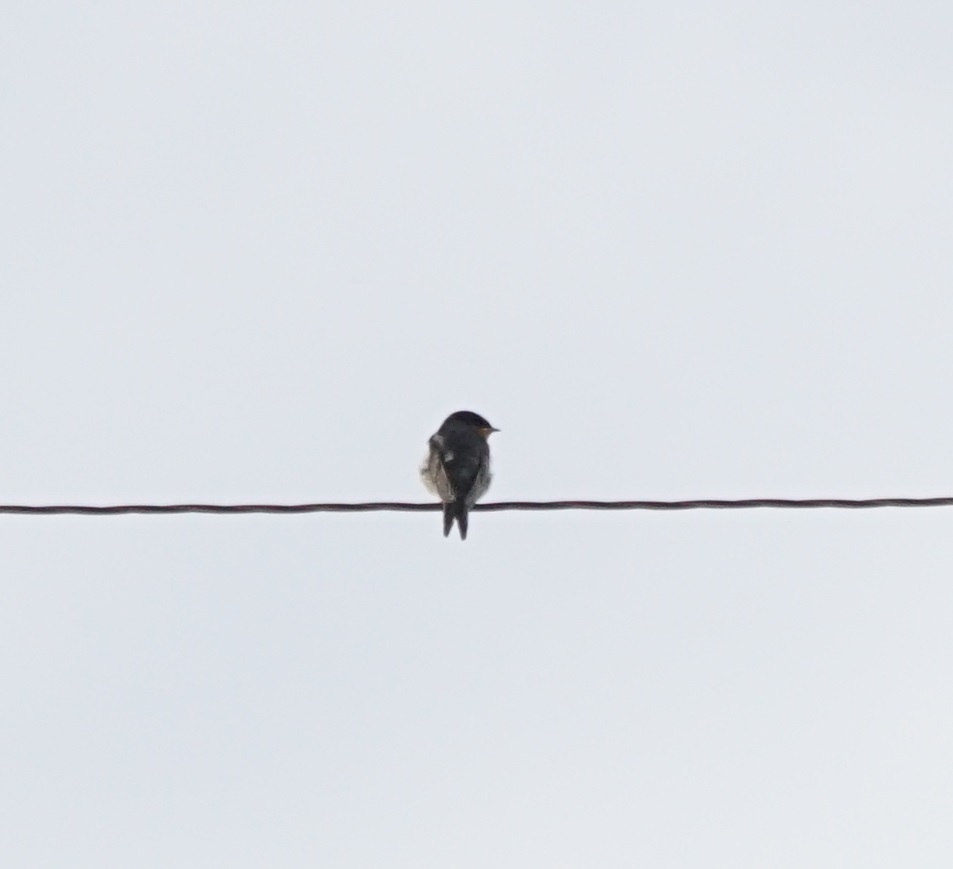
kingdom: Animalia
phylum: Chordata
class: Aves
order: Passeriformes
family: Hirundinidae
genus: Hirundo
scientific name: Hirundo neoxena
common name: Welcome swallow
